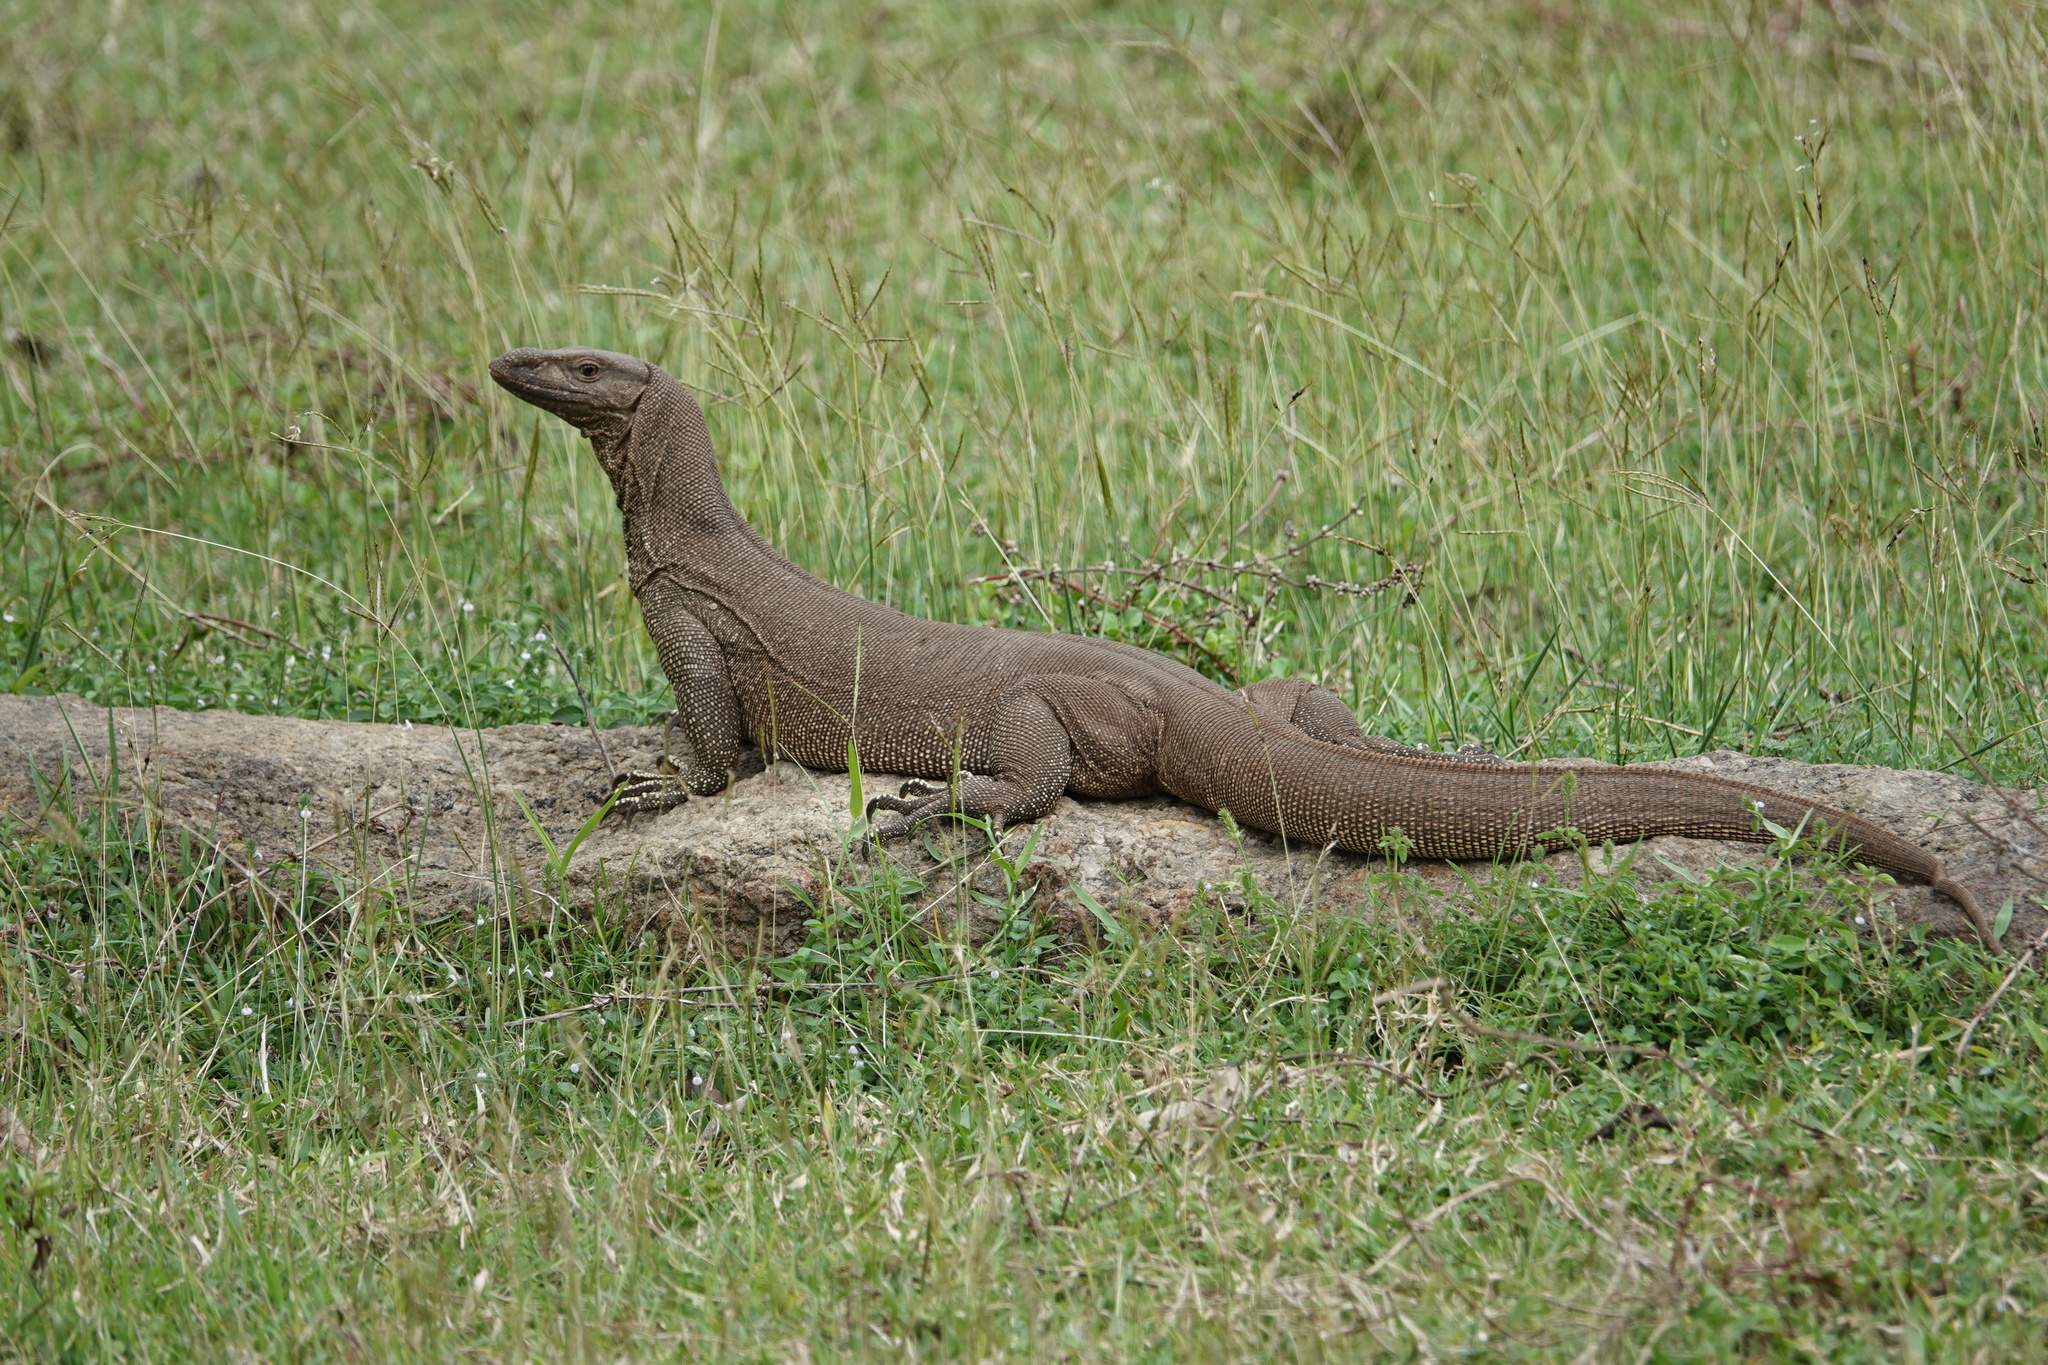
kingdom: Animalia
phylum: Chordata
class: Squamata
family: Varanidae
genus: Varanus
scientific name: Varanus bengalensis
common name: Bengal monitor
